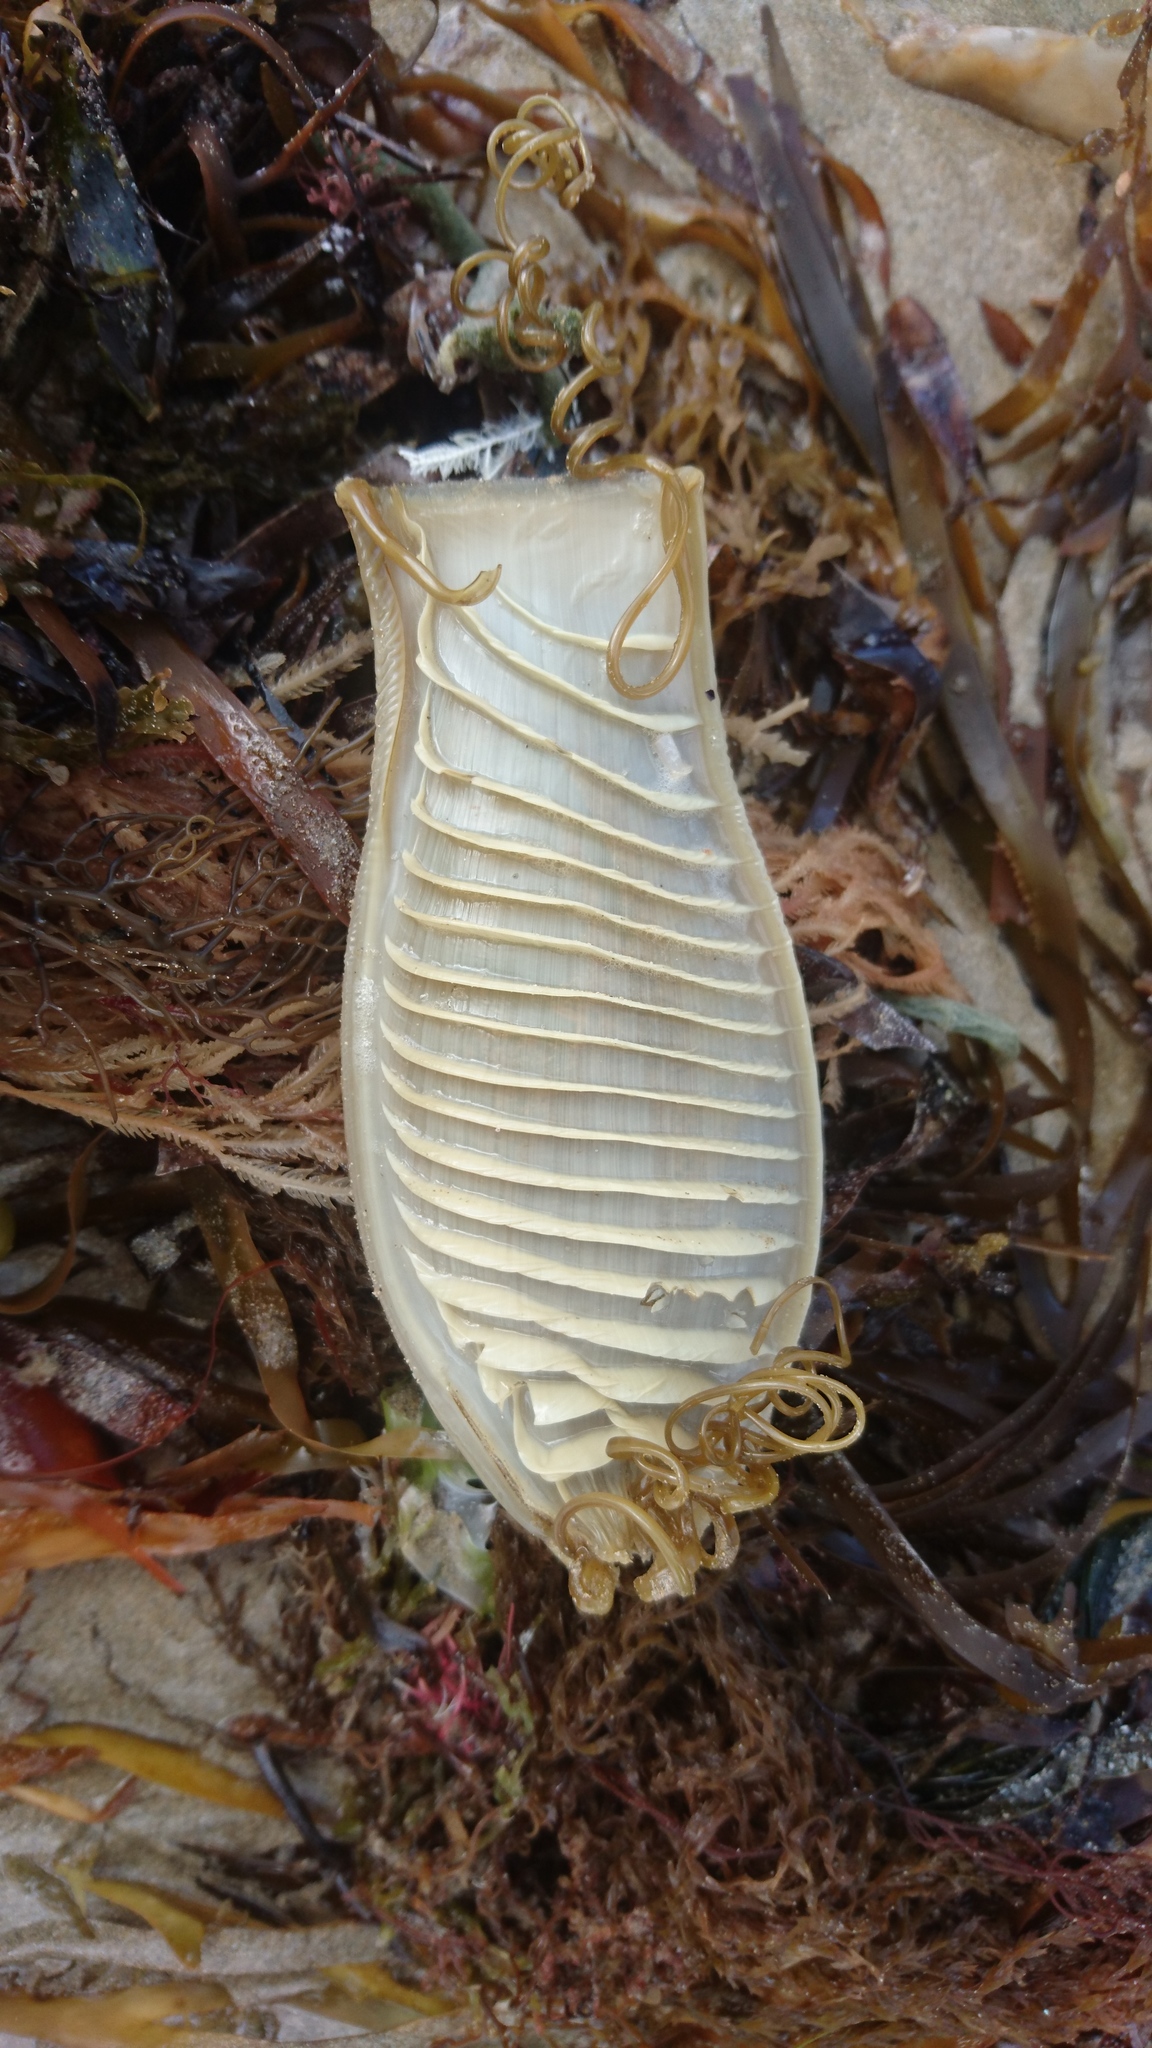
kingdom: Animalia
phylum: Chordata
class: Elasmobranchii
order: Carcharhiniformes
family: Scyliorhinidae
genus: Cephaloscyllium
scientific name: Cephaloscyllium laticeps
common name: Australian swellshark
